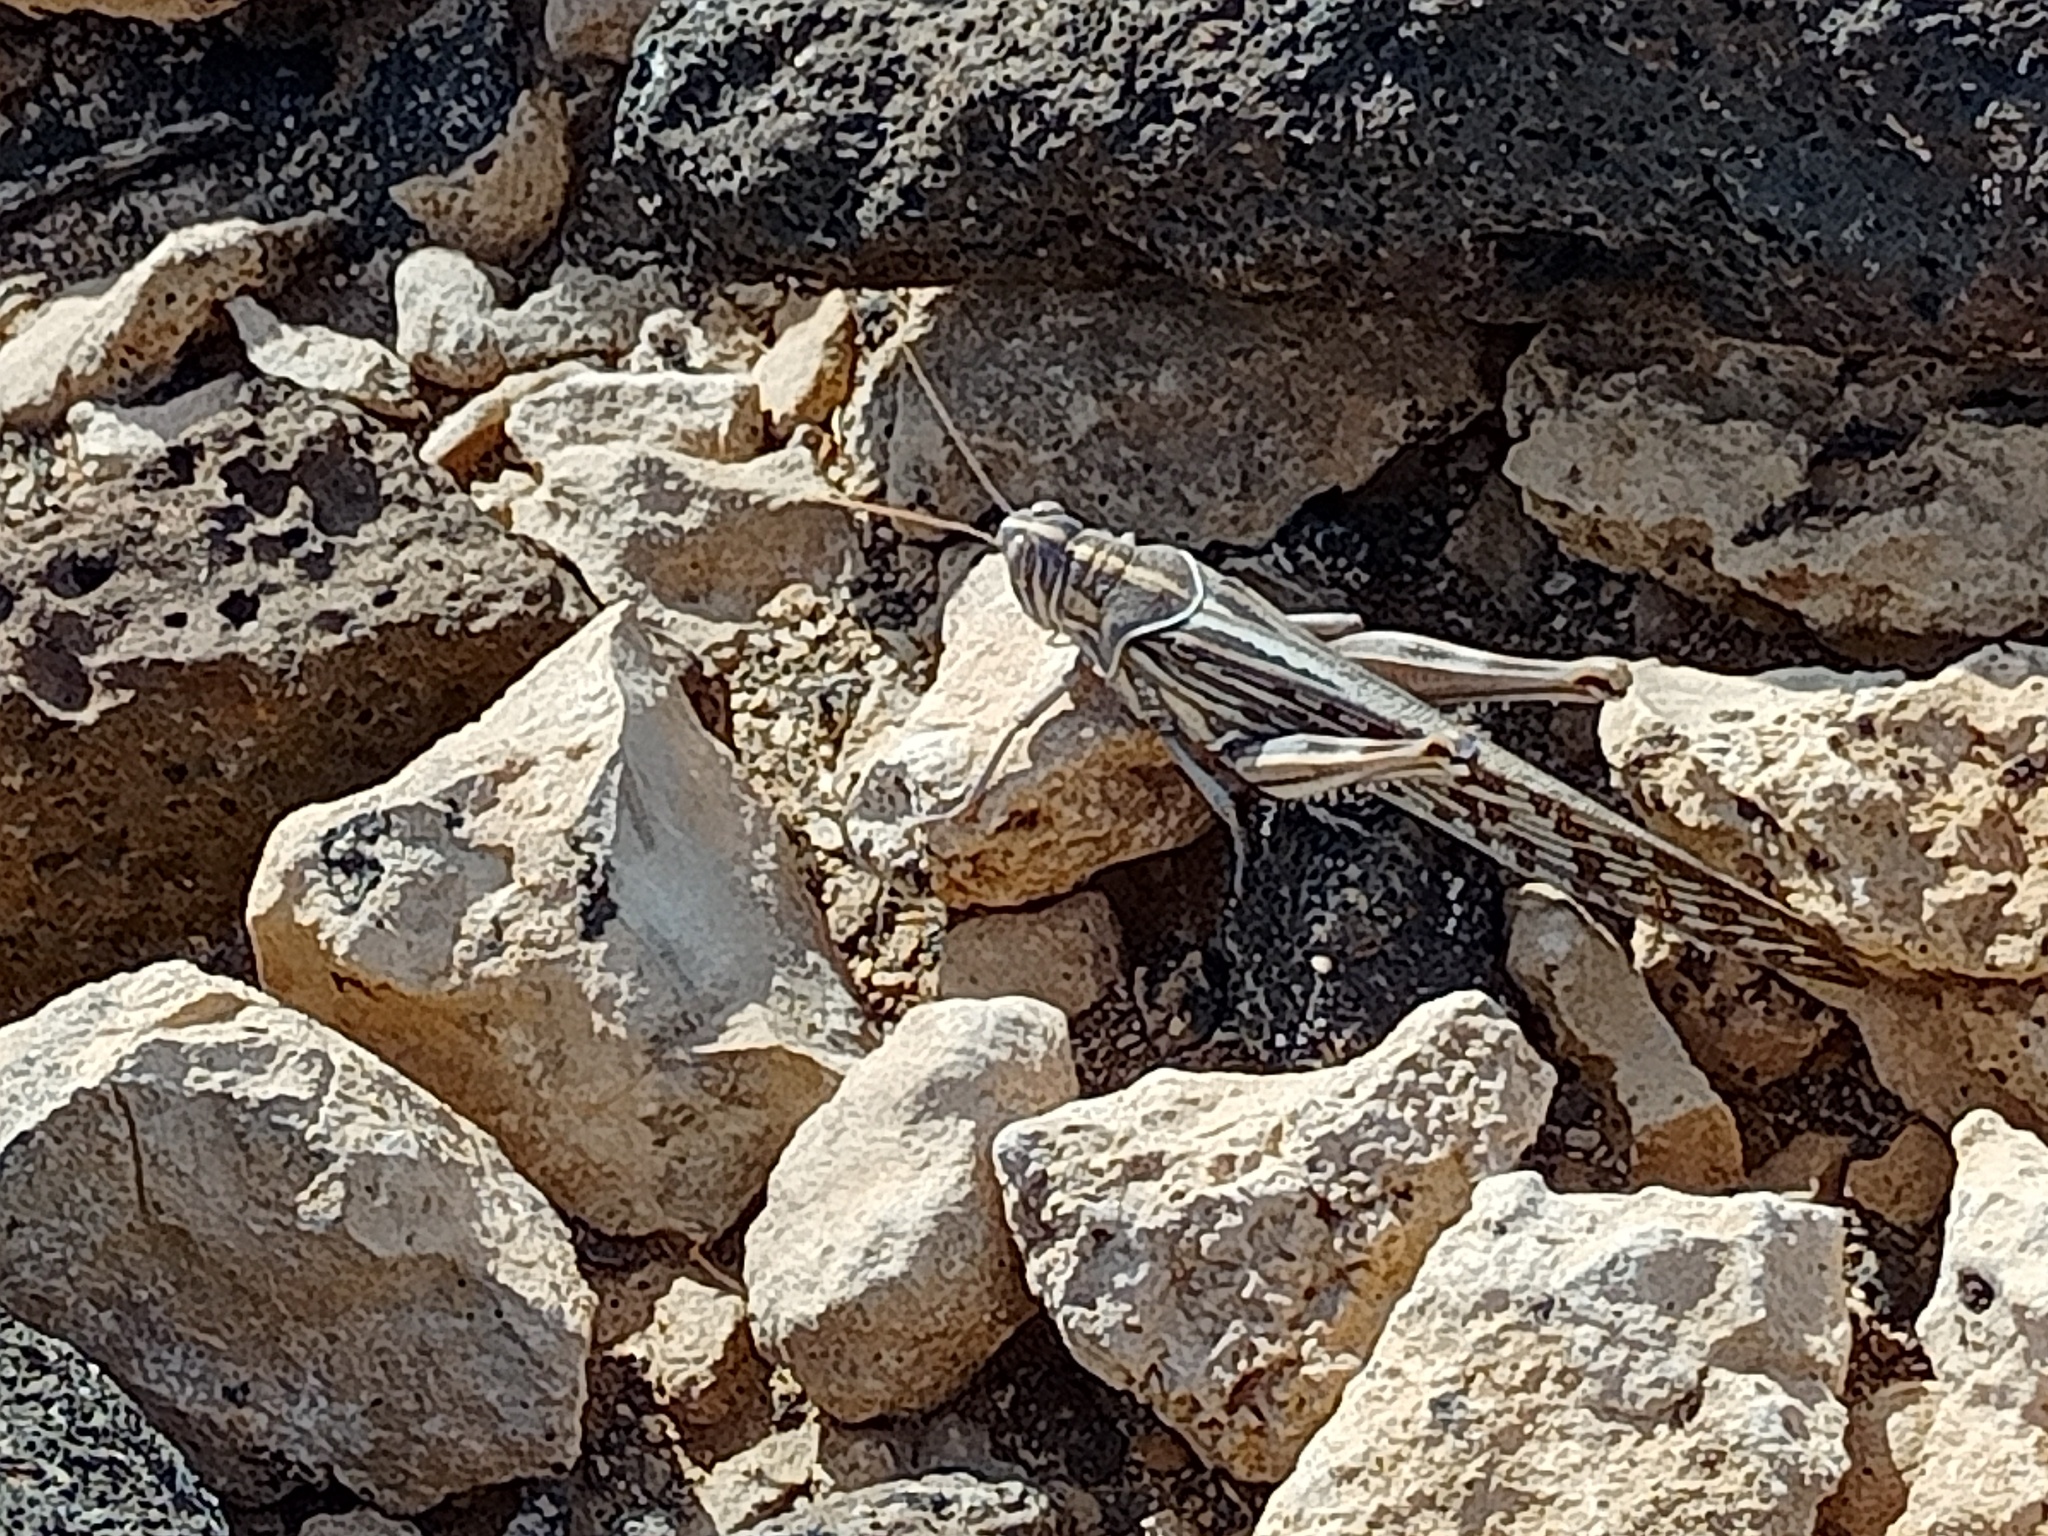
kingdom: Animalia
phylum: Arthropoda
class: Insecta
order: Orthoptera
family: Acrididae
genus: Schistocerca
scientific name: Schistocerca gregaria
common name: Desert locust
